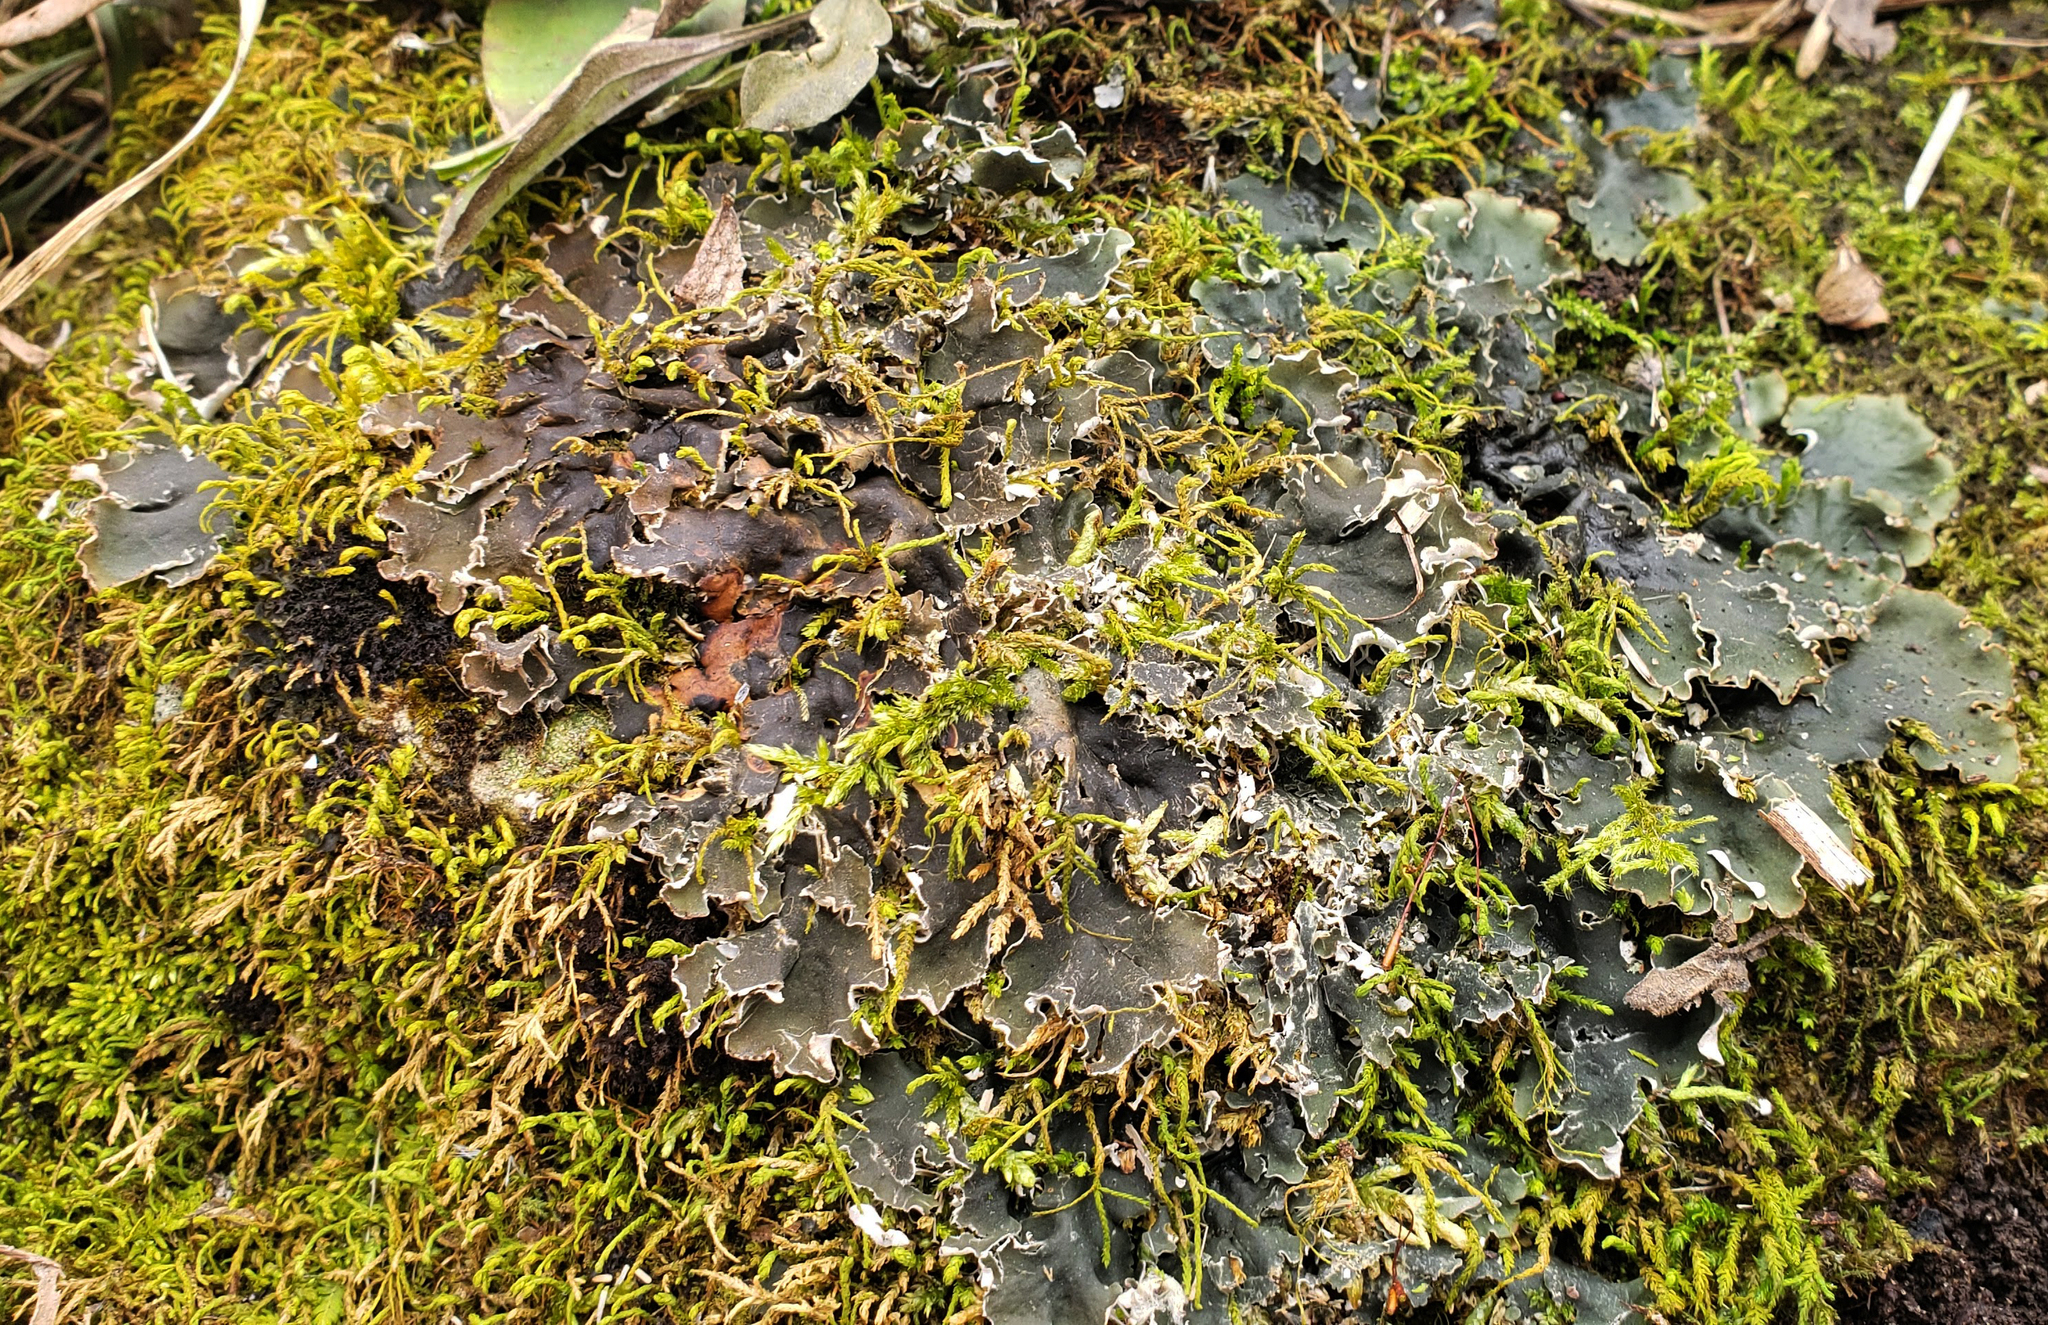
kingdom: Fungi
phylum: Ascomycota
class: Lecanoromycetes
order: Peltigerales
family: Peltigeraceae
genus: Peltigera
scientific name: Peltigera praetextata
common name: Scaly dog-lichen
